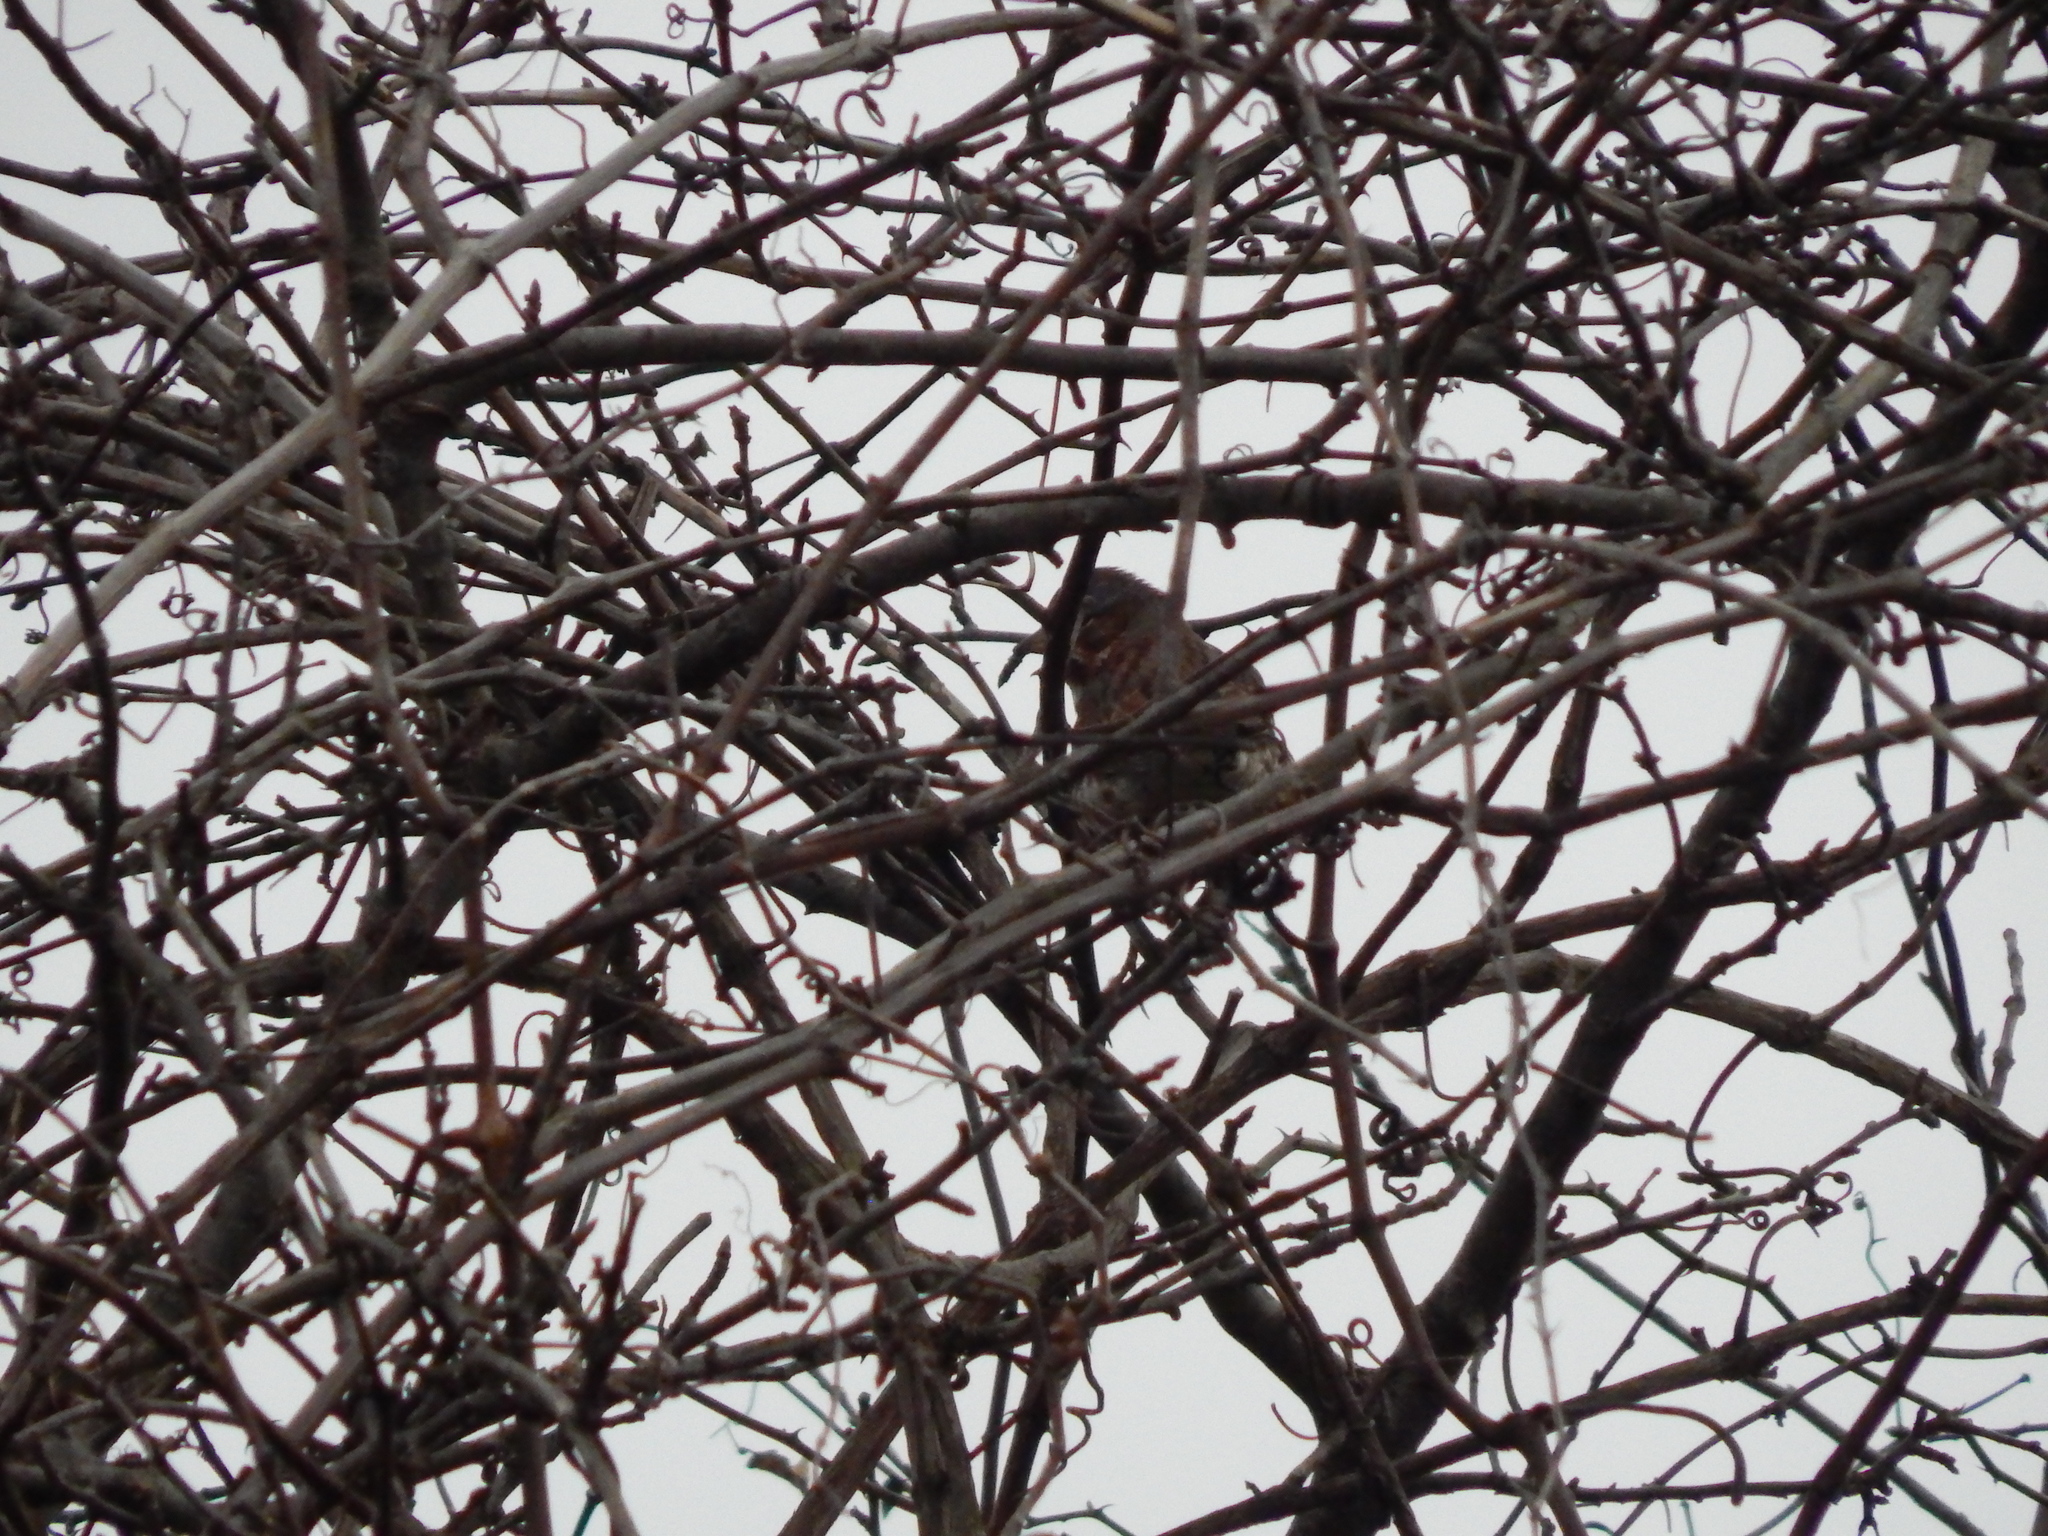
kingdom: Animalia
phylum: Chordata
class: Aves
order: Passeriformes
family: Passerellidae
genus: Passerella
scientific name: Passerella iliaca
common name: Fox sparrow
